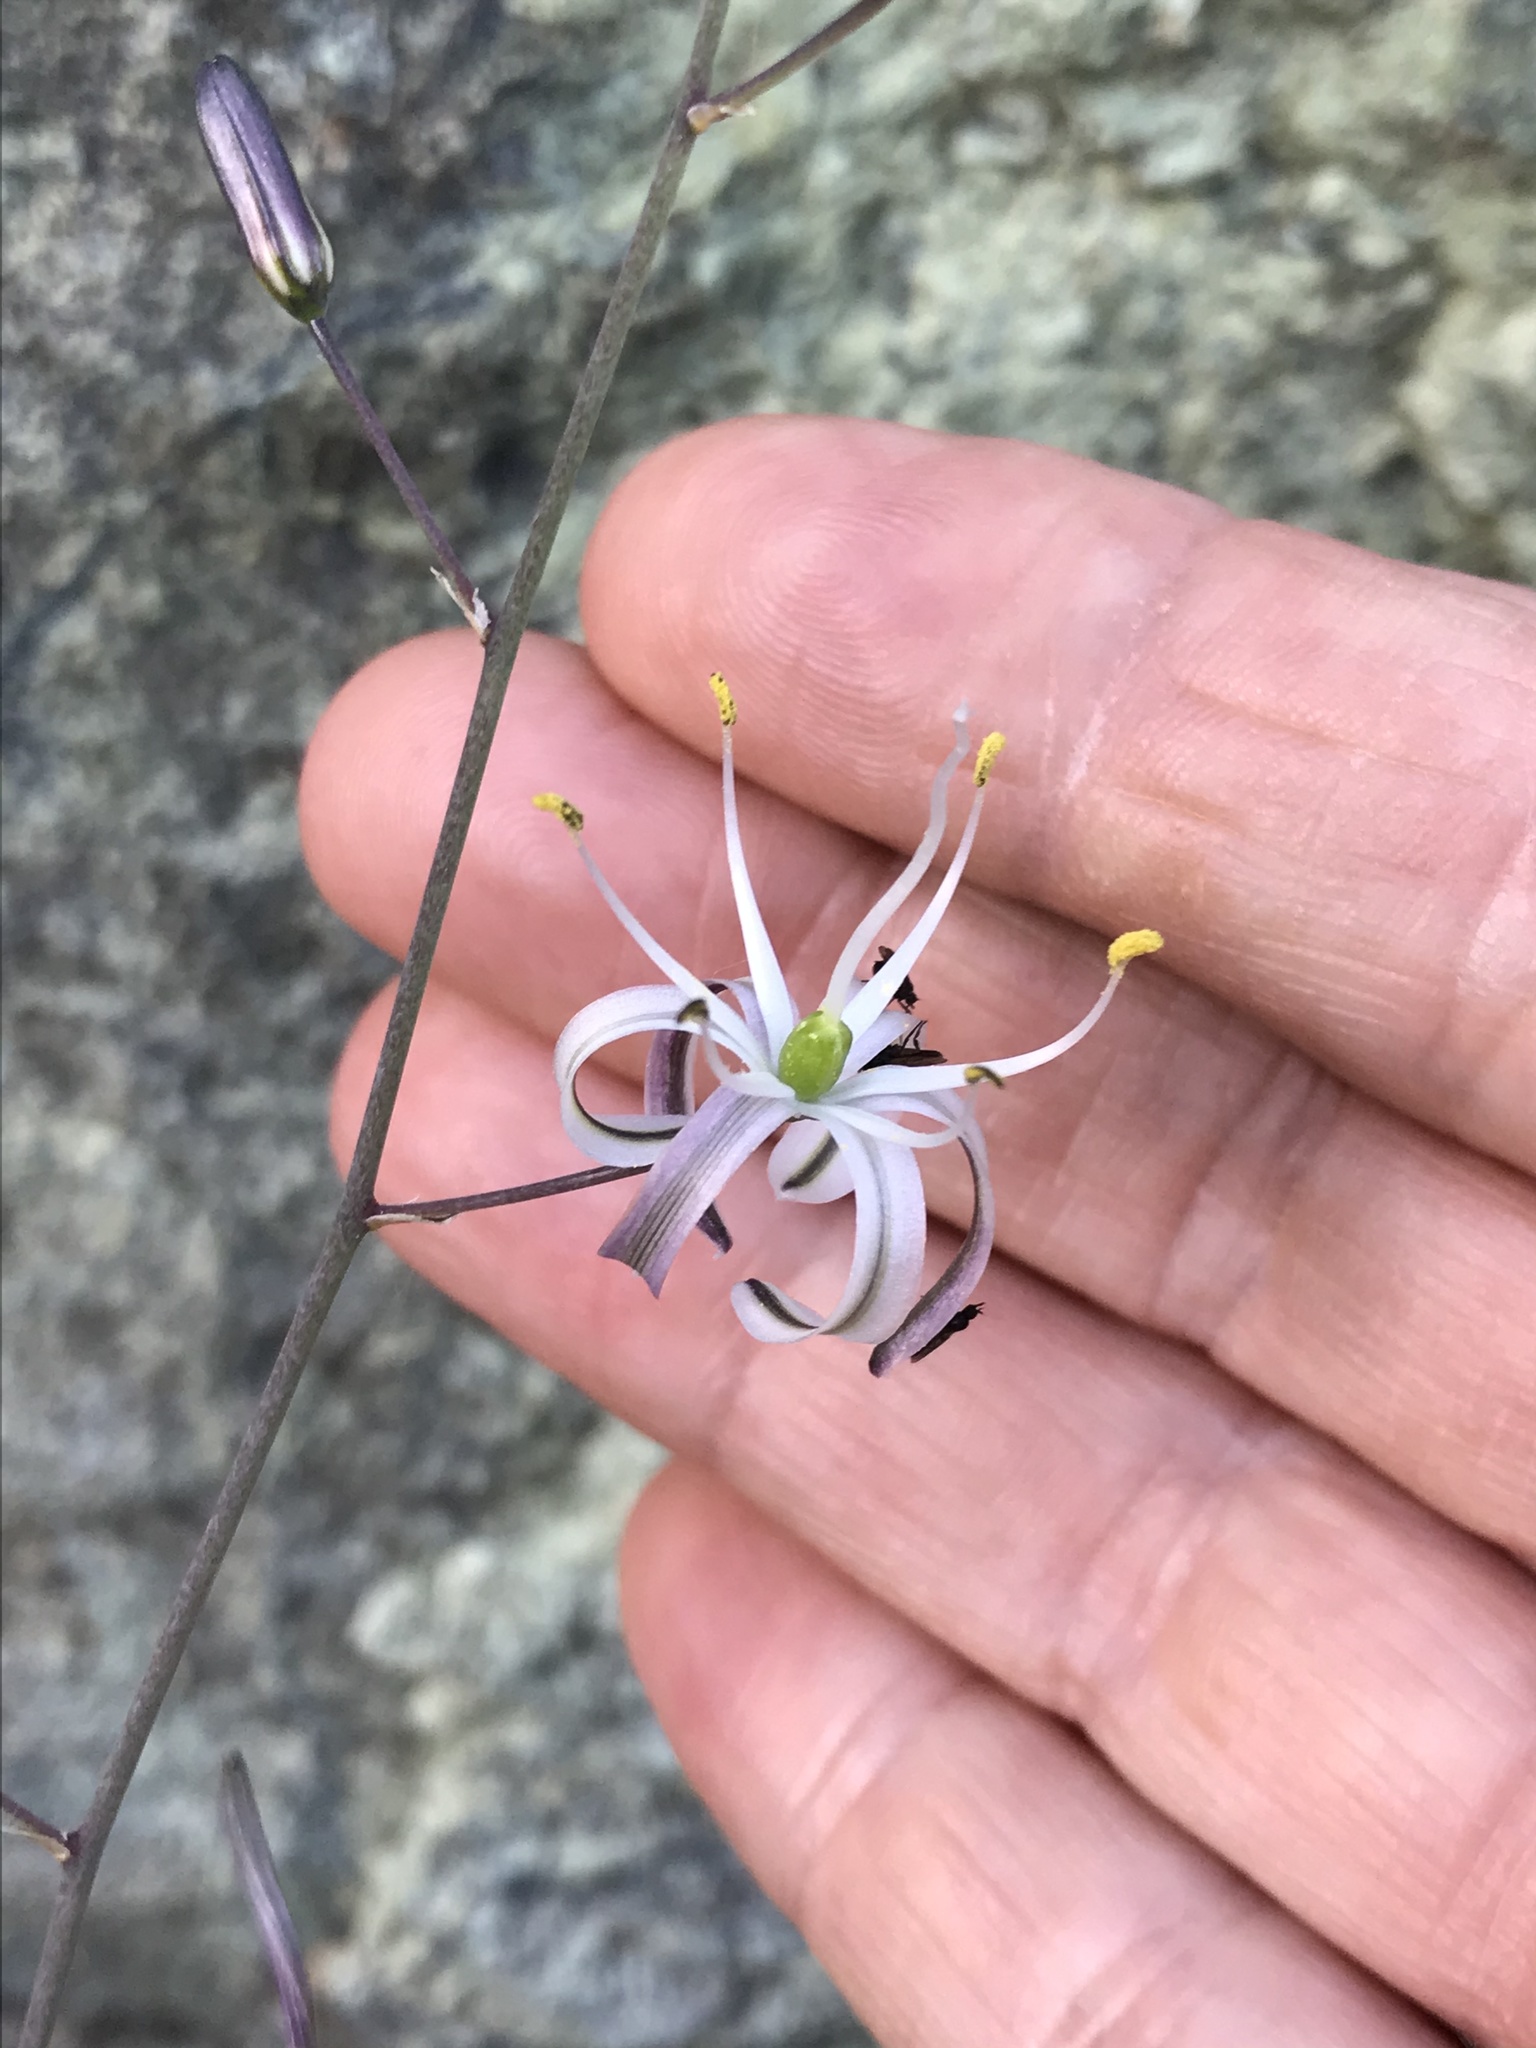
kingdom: Plantae
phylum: Tracheophyta
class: Liliopsida
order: Asparagales
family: Asparagaceae
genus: Chlorogalum
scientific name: Chlorogalum pomeridianum
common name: Amole
